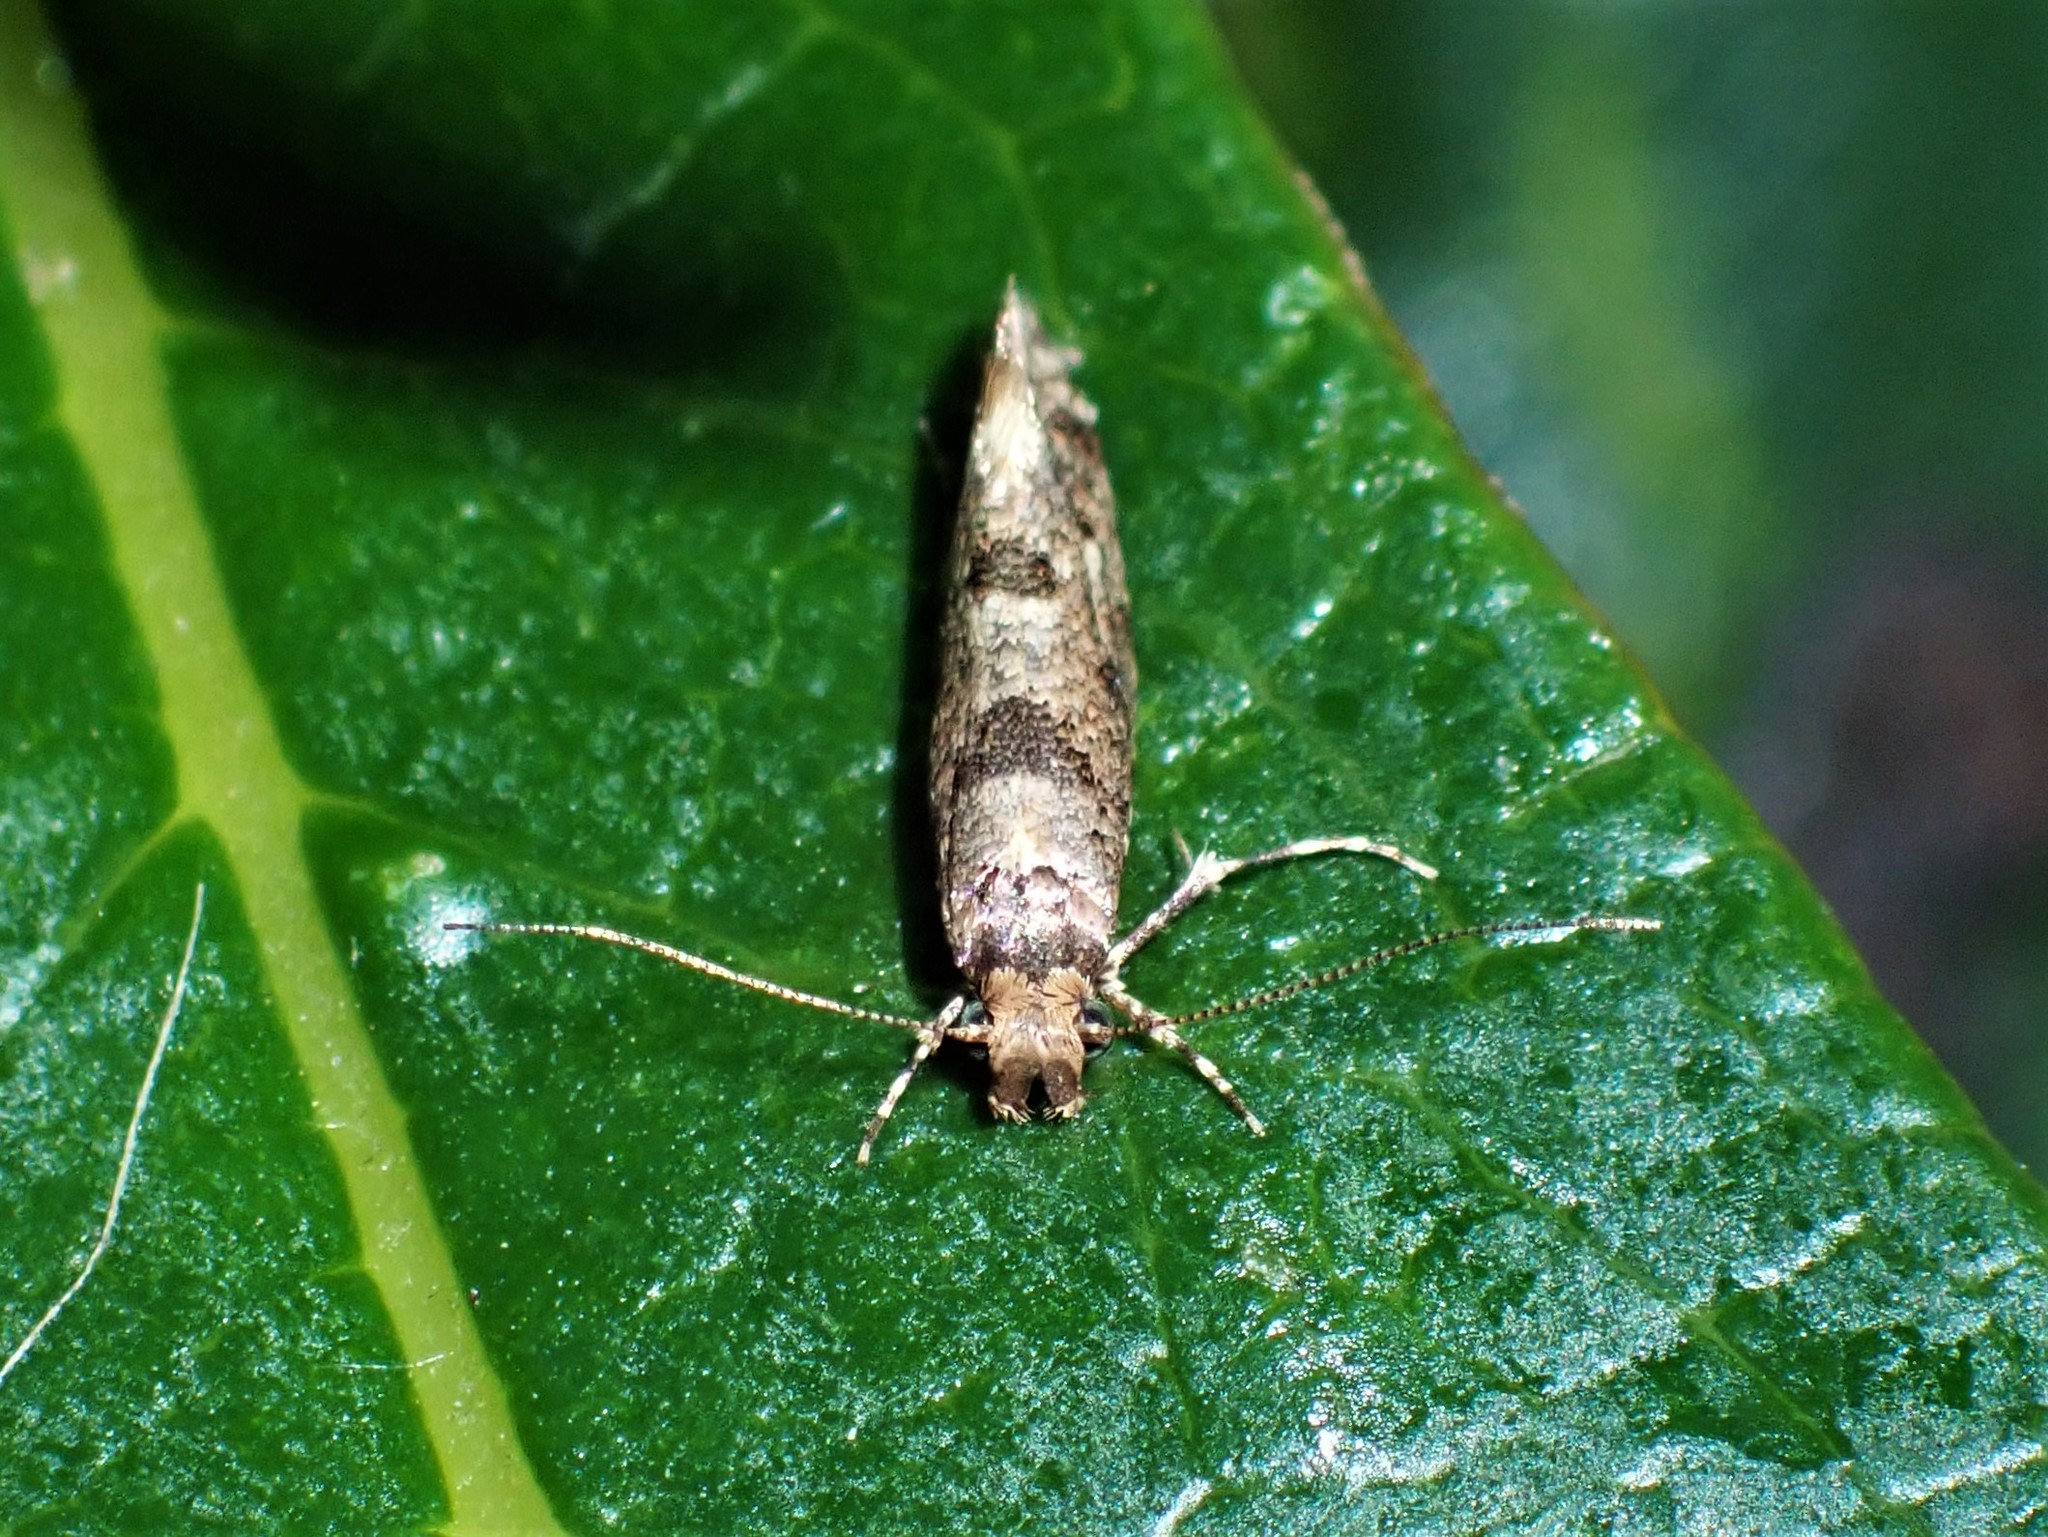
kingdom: Animalia
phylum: Arthropoda
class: Insecta
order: Lepidoptera
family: Tineidae
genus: Parochmastis
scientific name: Parochmastis hilderi
